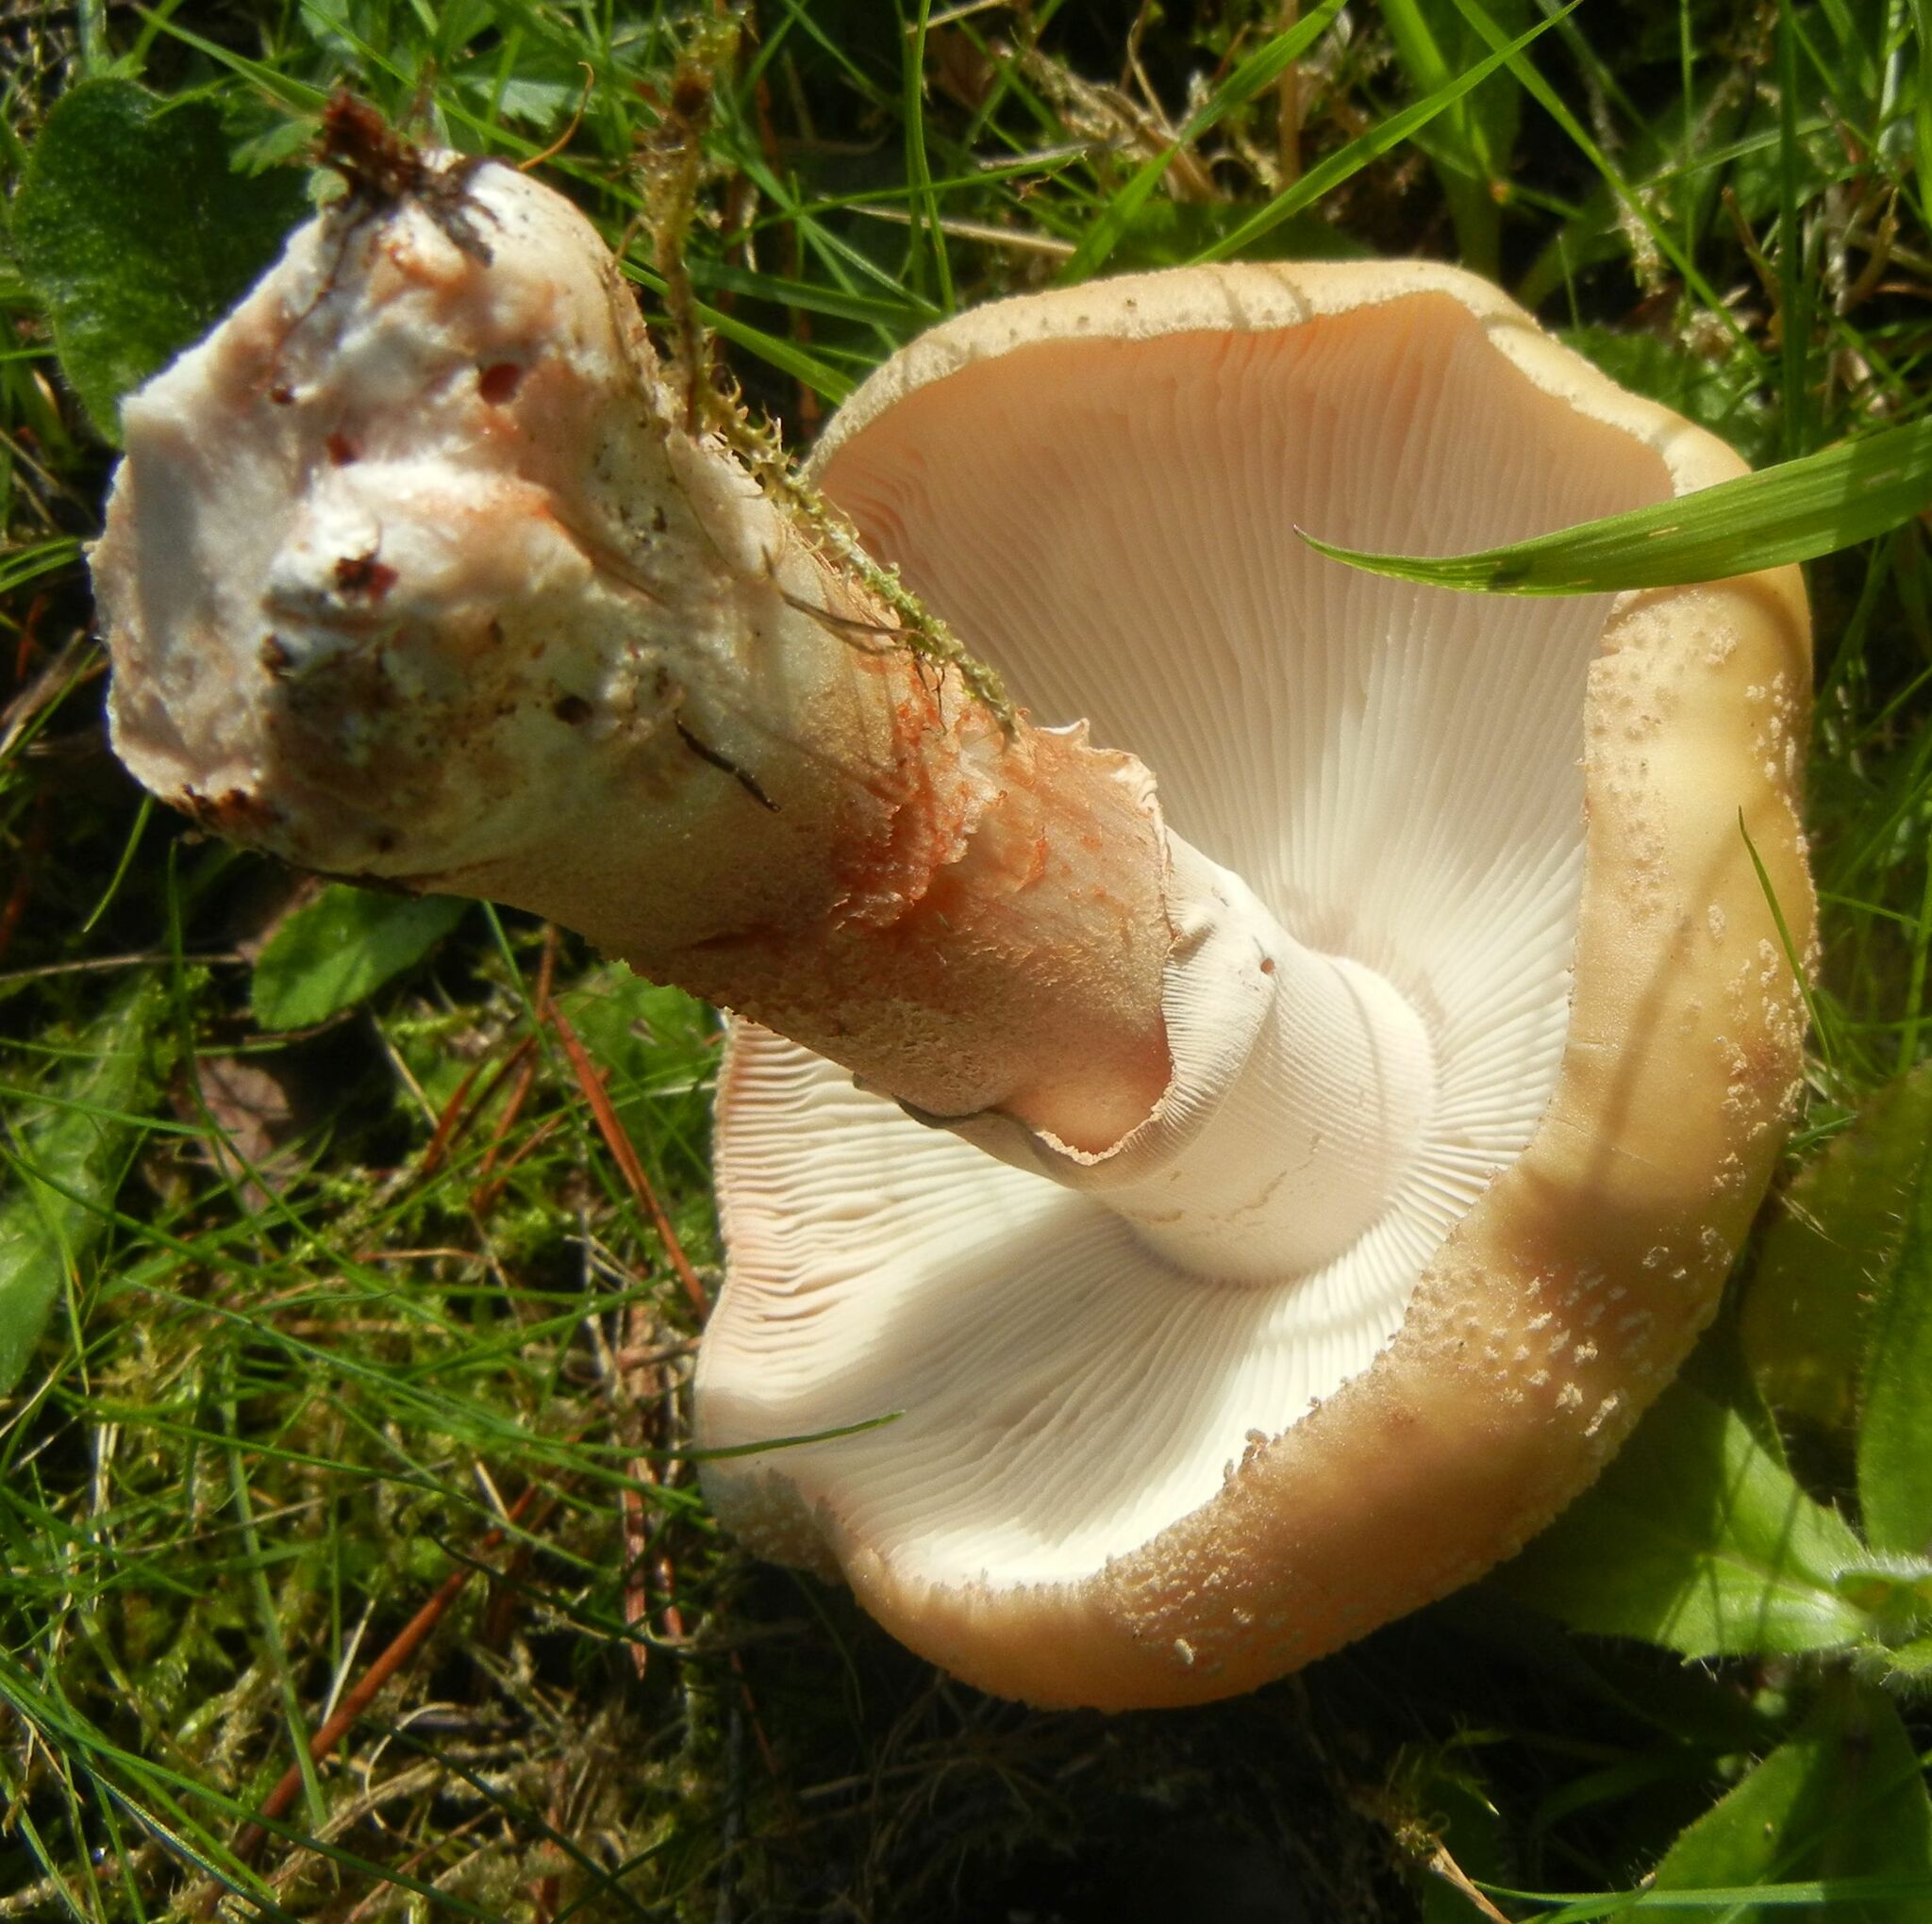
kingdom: Fungi
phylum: Basidiomycota
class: Agaricomycetes
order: Agaricales
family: Amanitaceae
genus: Amanita
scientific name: Amanita rubescens
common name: Blusher
